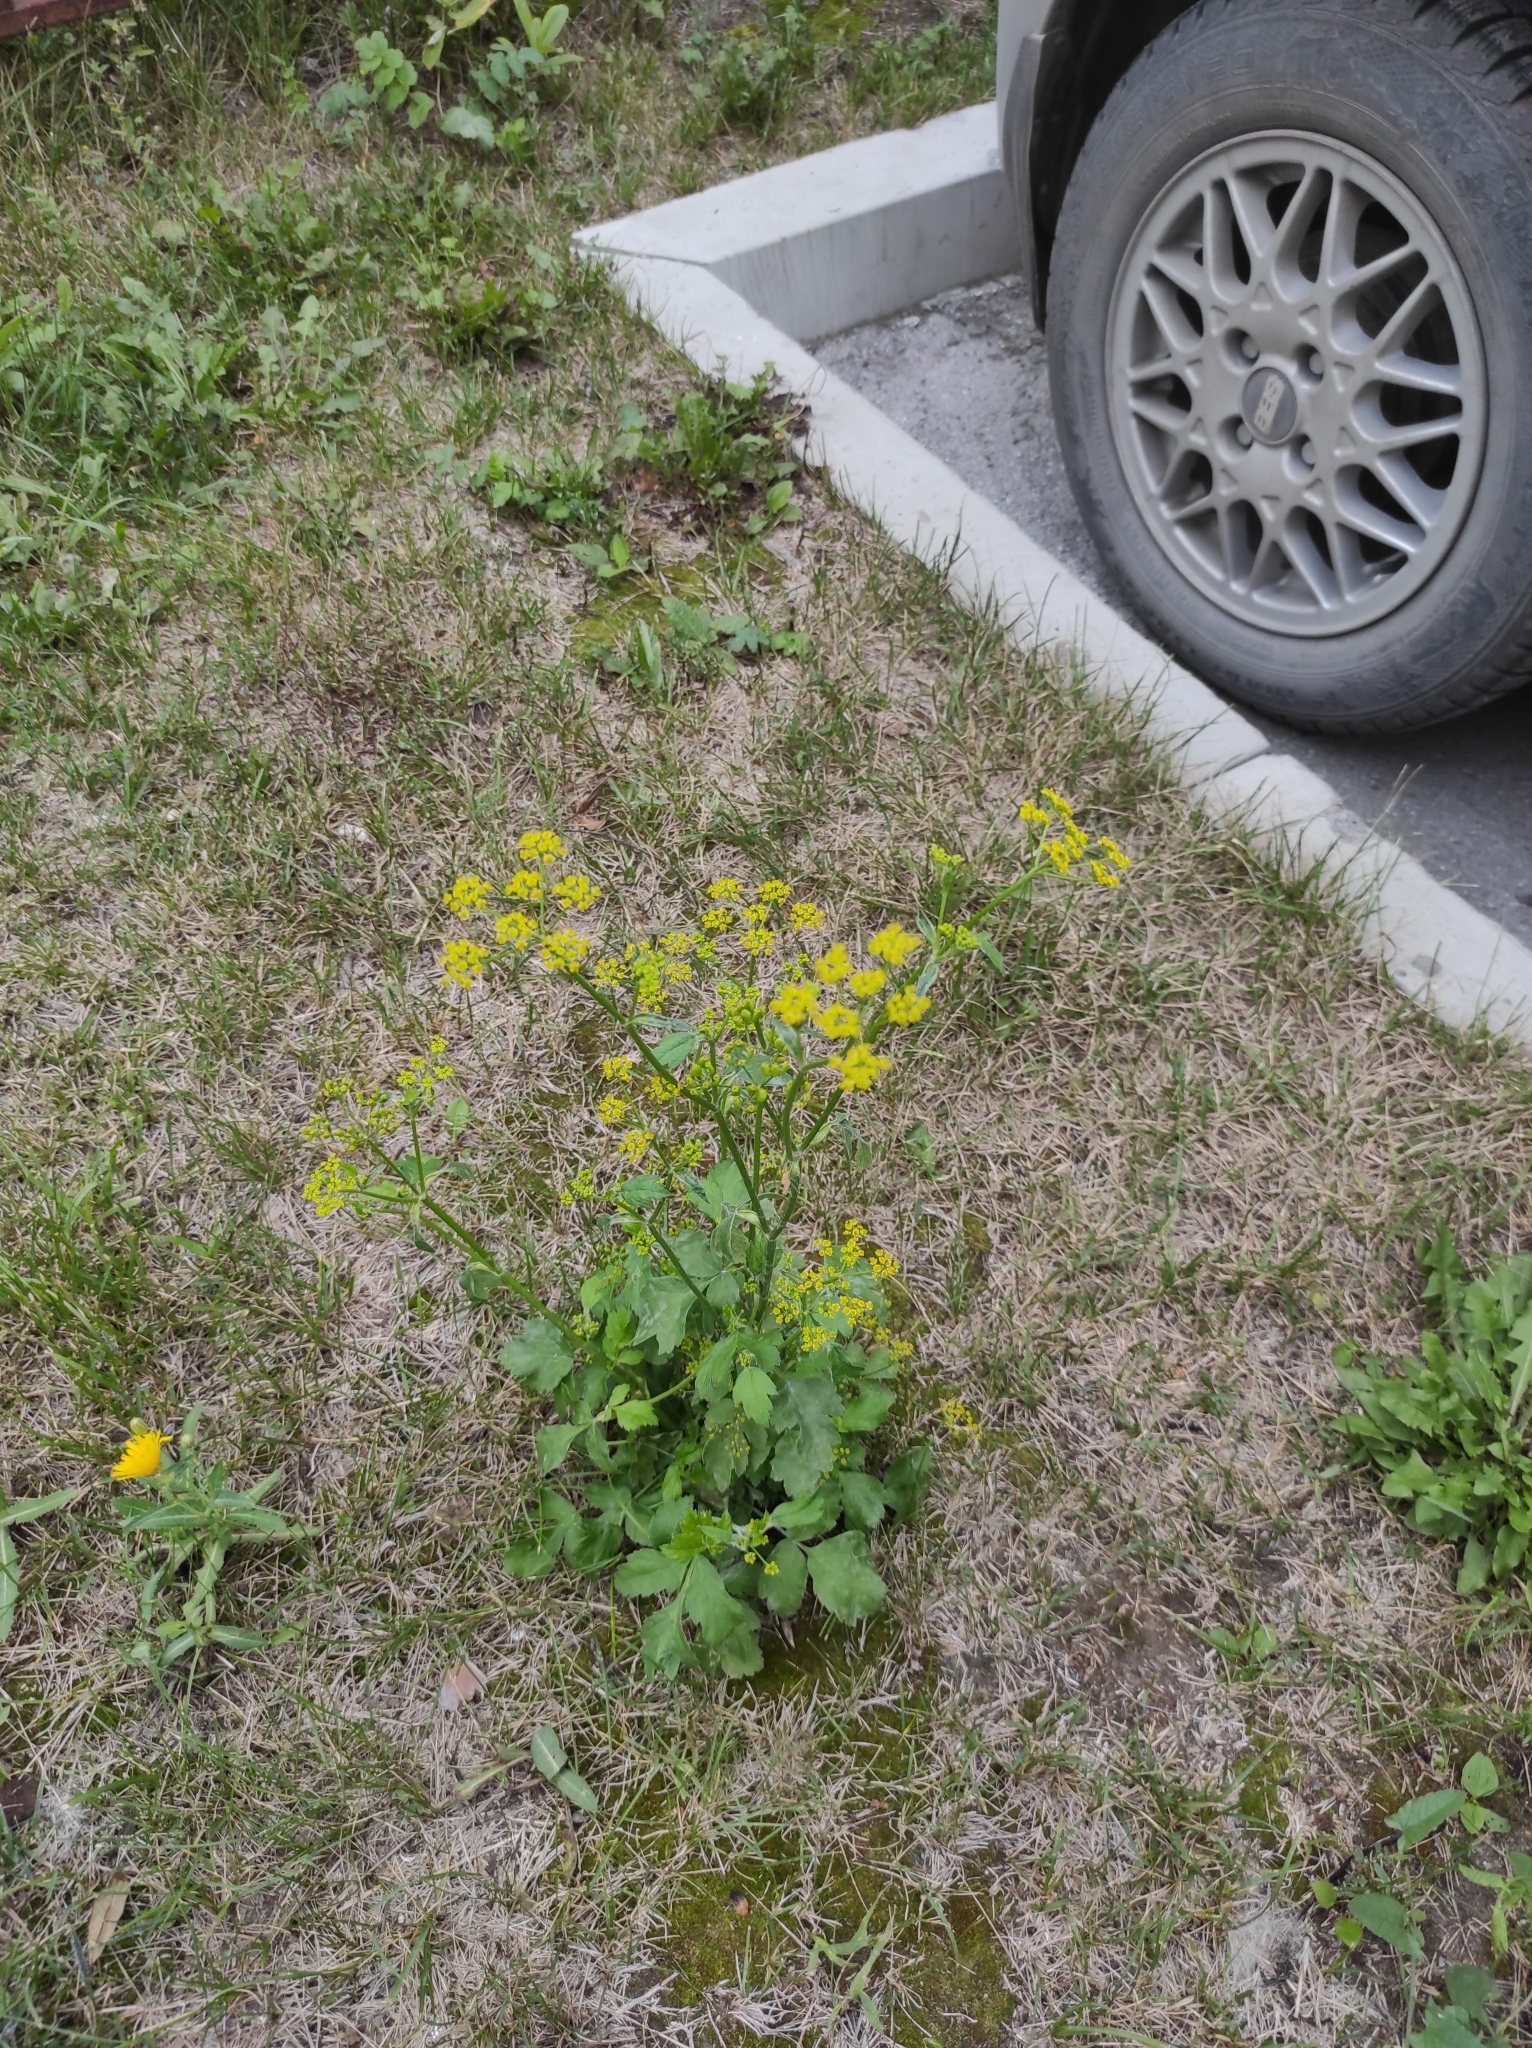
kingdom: Plantae
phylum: Tracheophyta
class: Magnoliopsida
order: Apiales
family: Apiaceae
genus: Pastinaca
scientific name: Pastinaca sativa
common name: Wild parsnip
